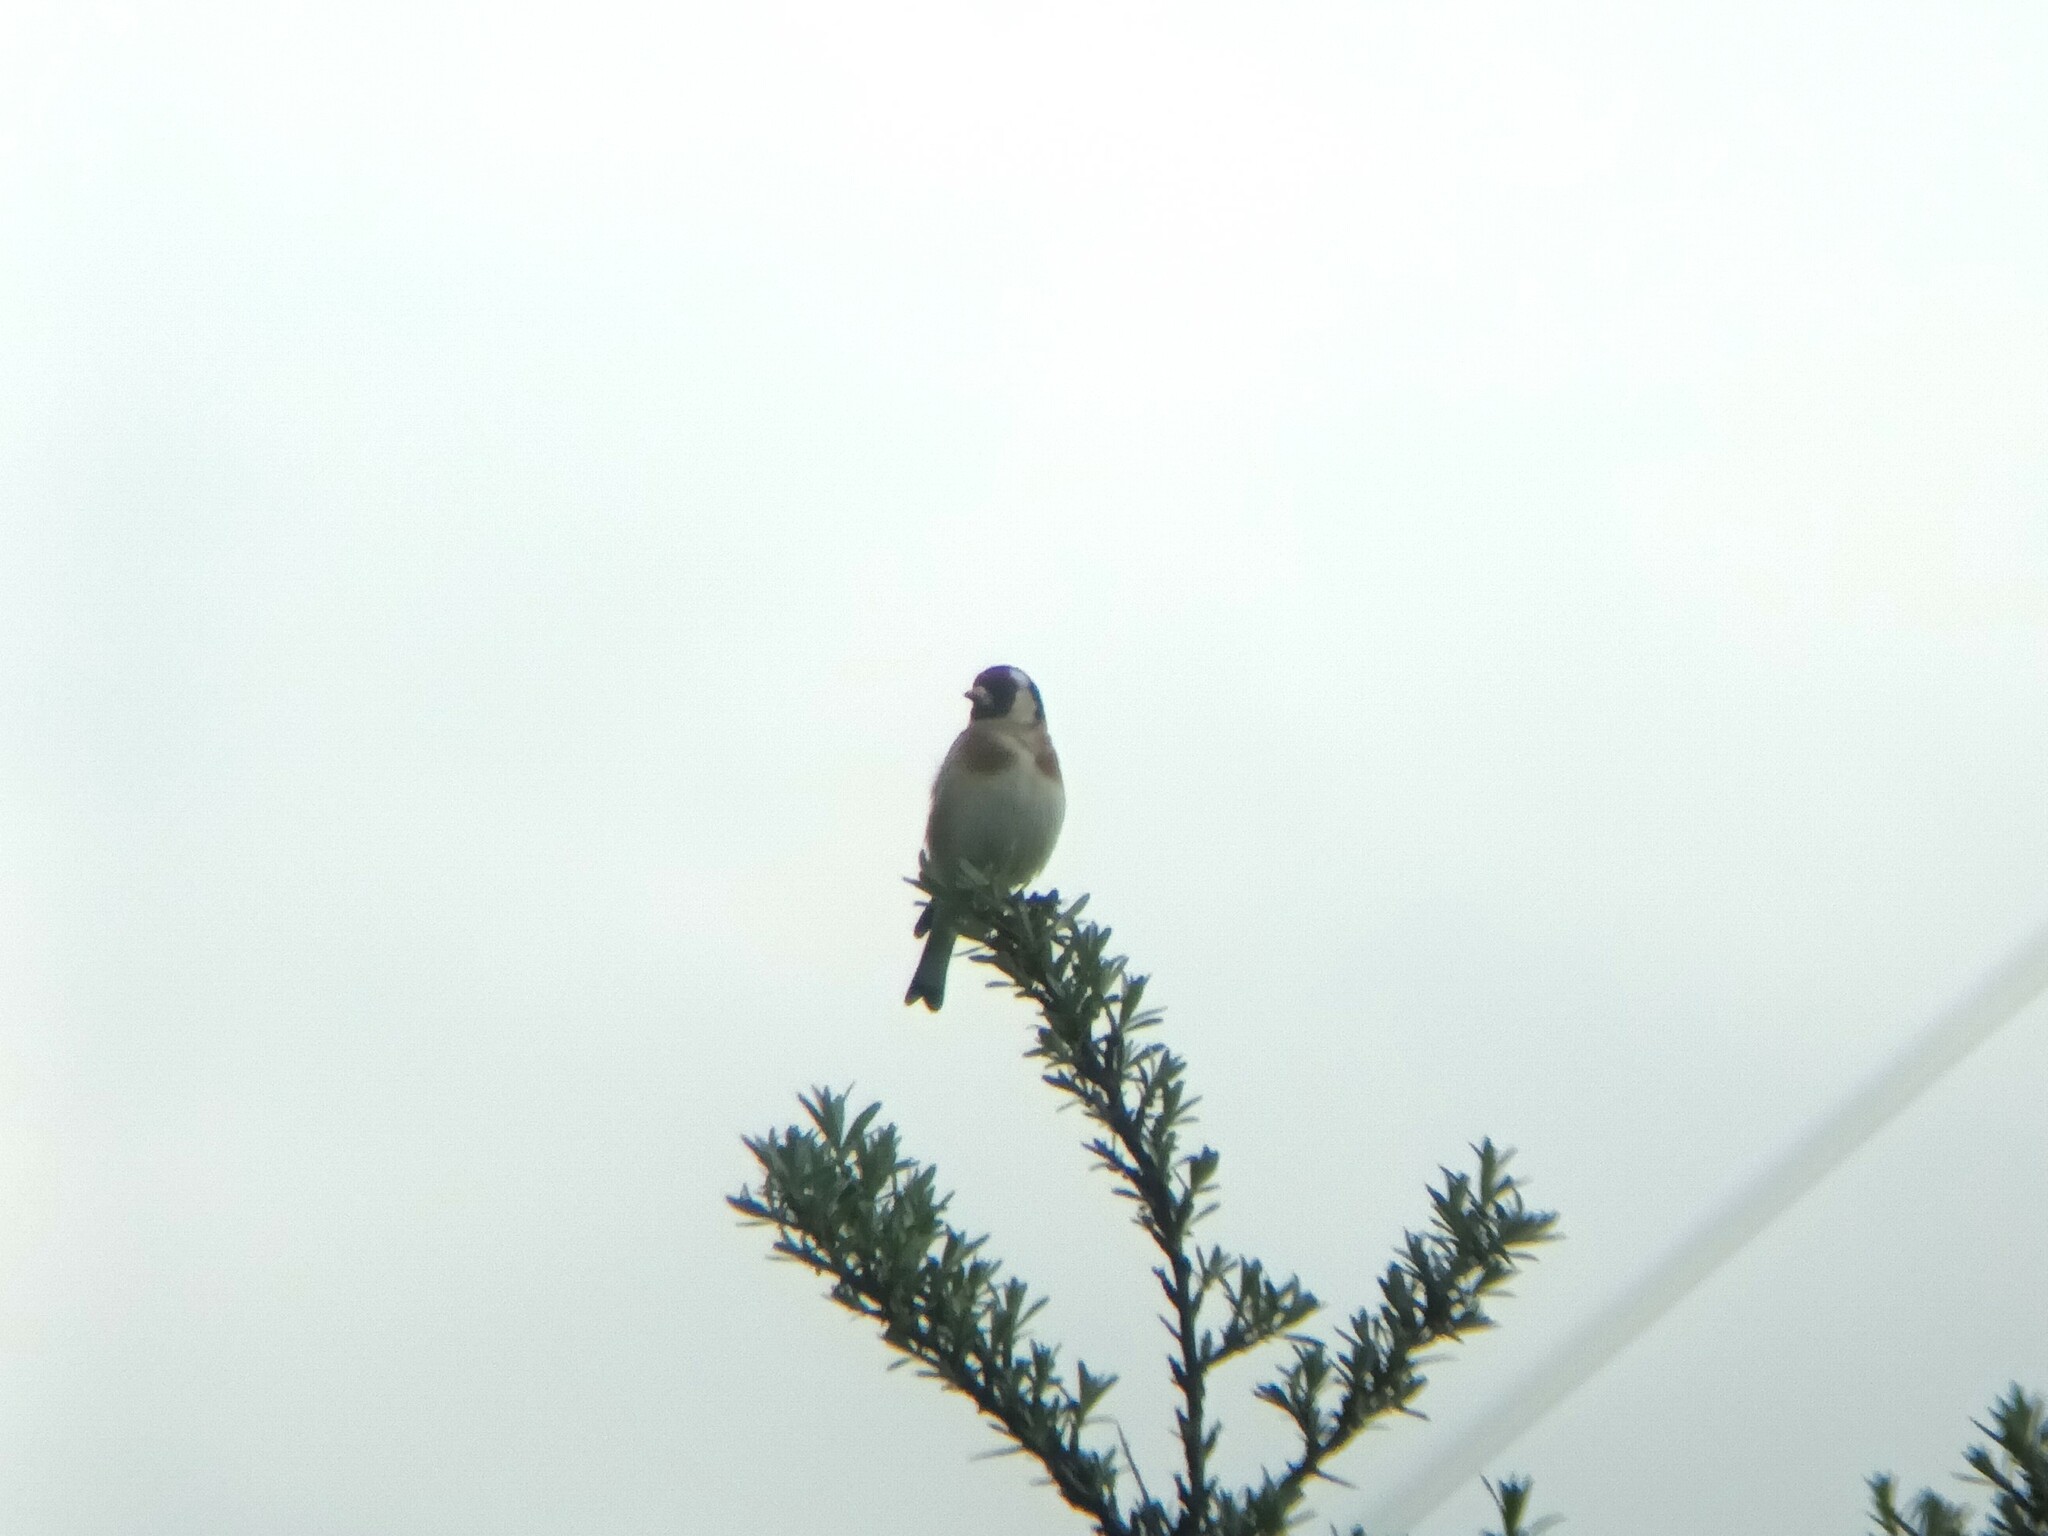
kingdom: Animalia
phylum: Chordata
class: Aves
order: Passeriformes
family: Fringillidae
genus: Carduelis
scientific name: Carduelis carduelis
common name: European goldfinch
